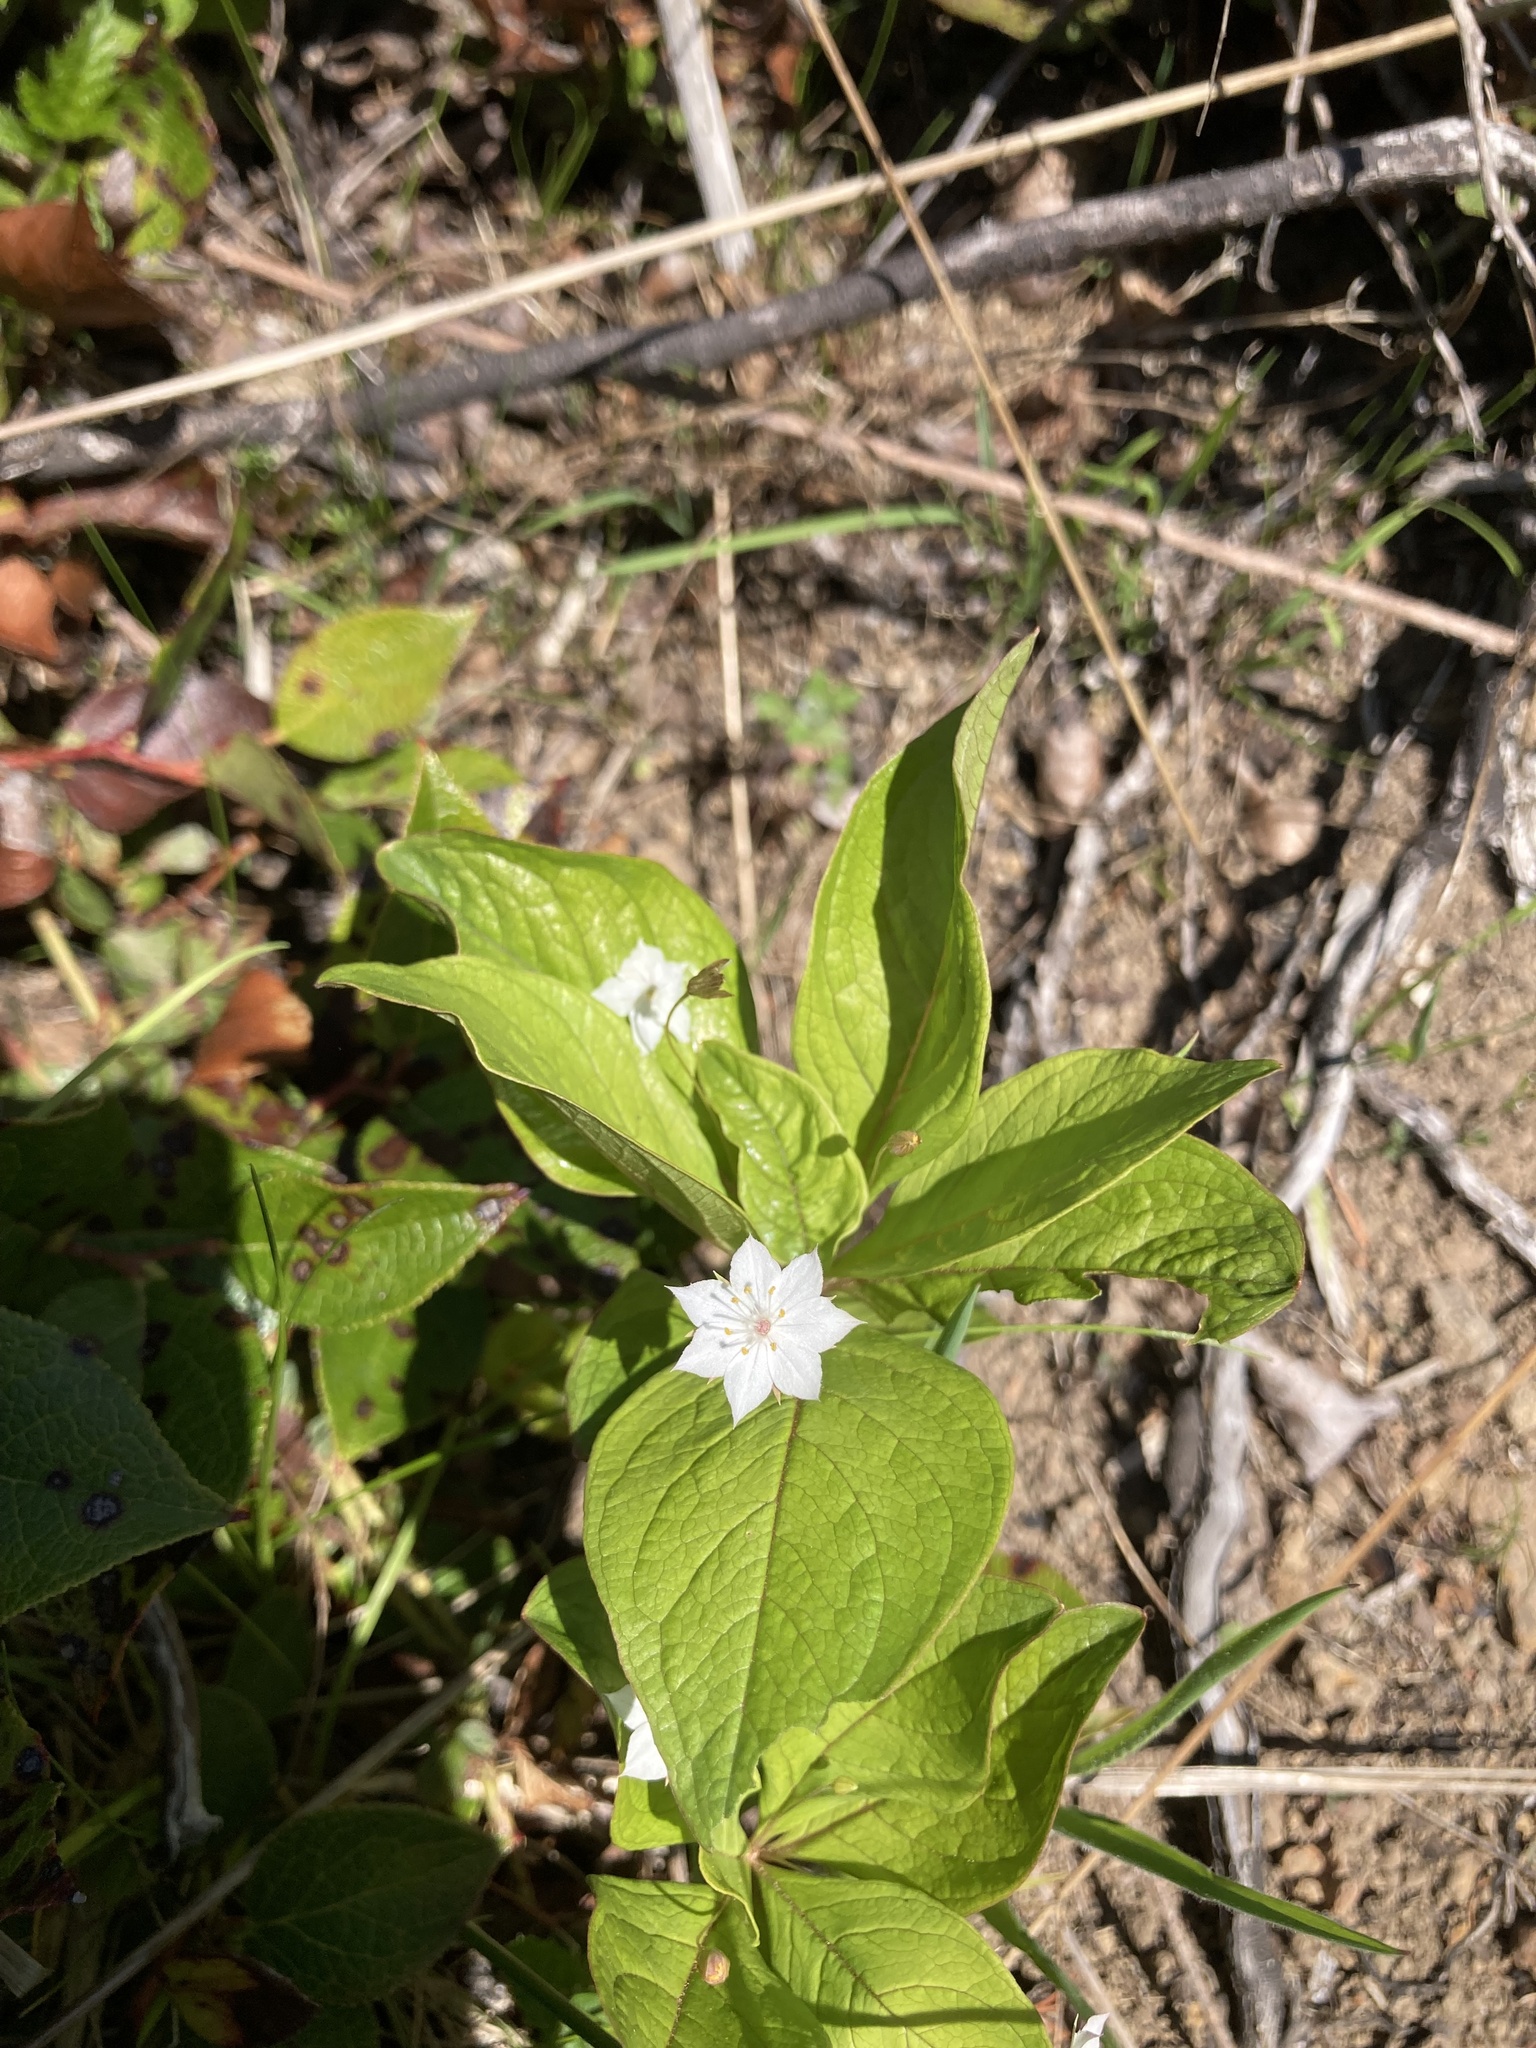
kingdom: Plantae
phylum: Tracheophyta
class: Magnoliopsida
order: Ericales
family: Primulaceae
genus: Lysimachia
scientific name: Lysimachia latifolia
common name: Pacific starflower
